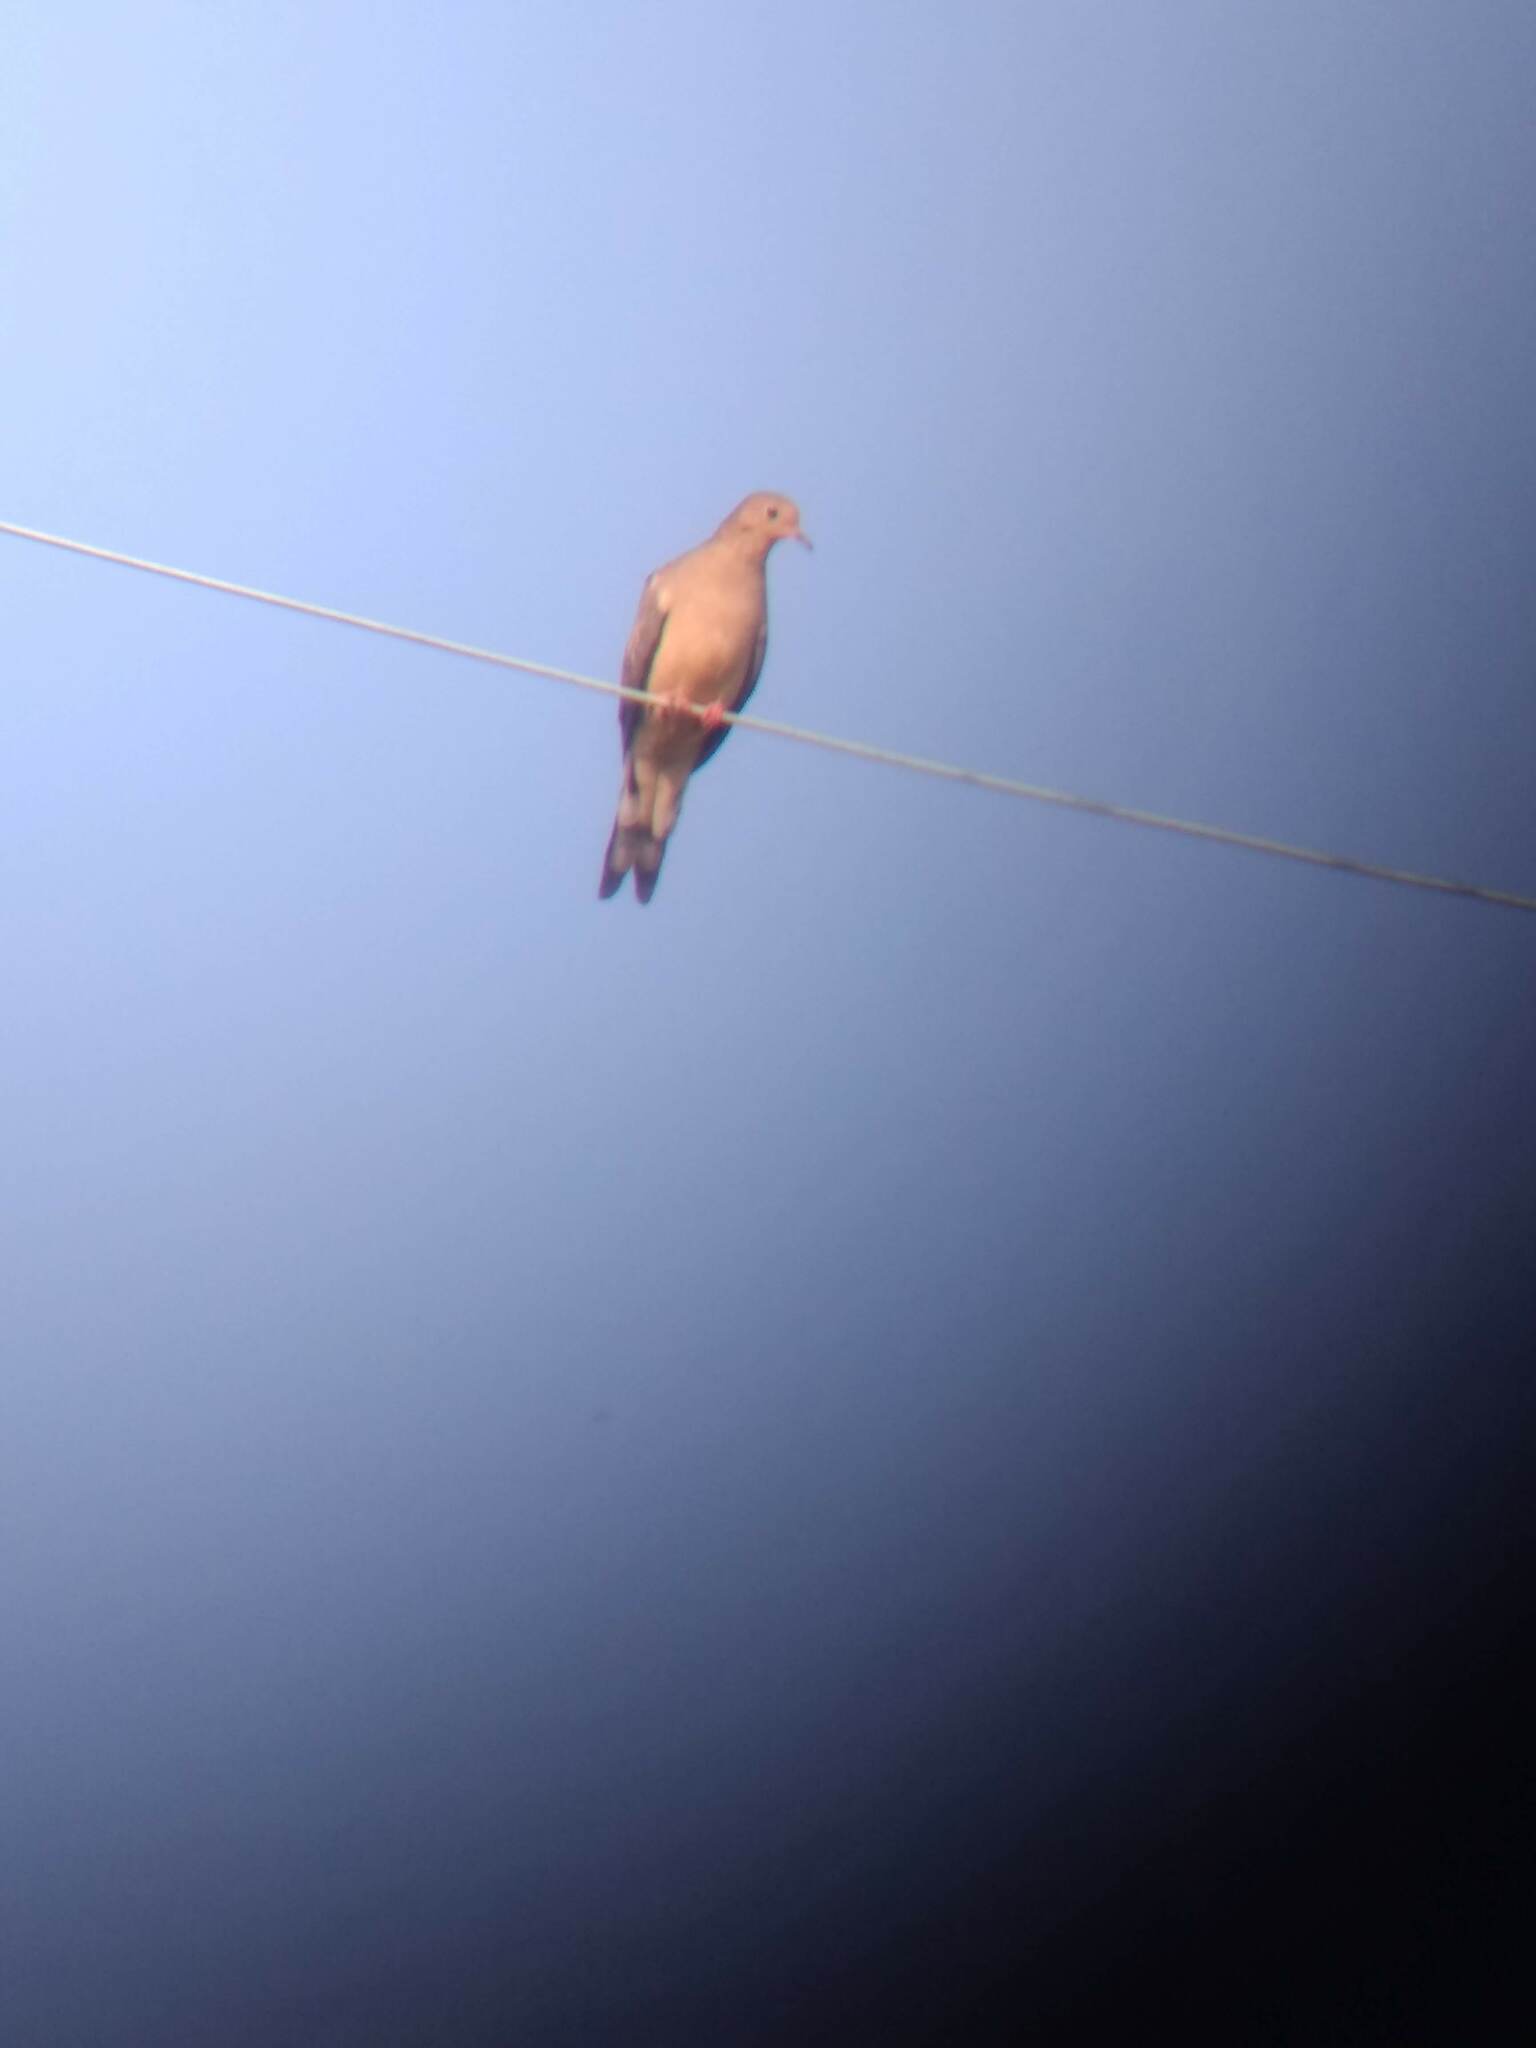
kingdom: Animalia
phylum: Chordata
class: Aves
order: Columbiformes
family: Columbidae
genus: Zenaida
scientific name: Zenaida macroura
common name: Mourning dove
